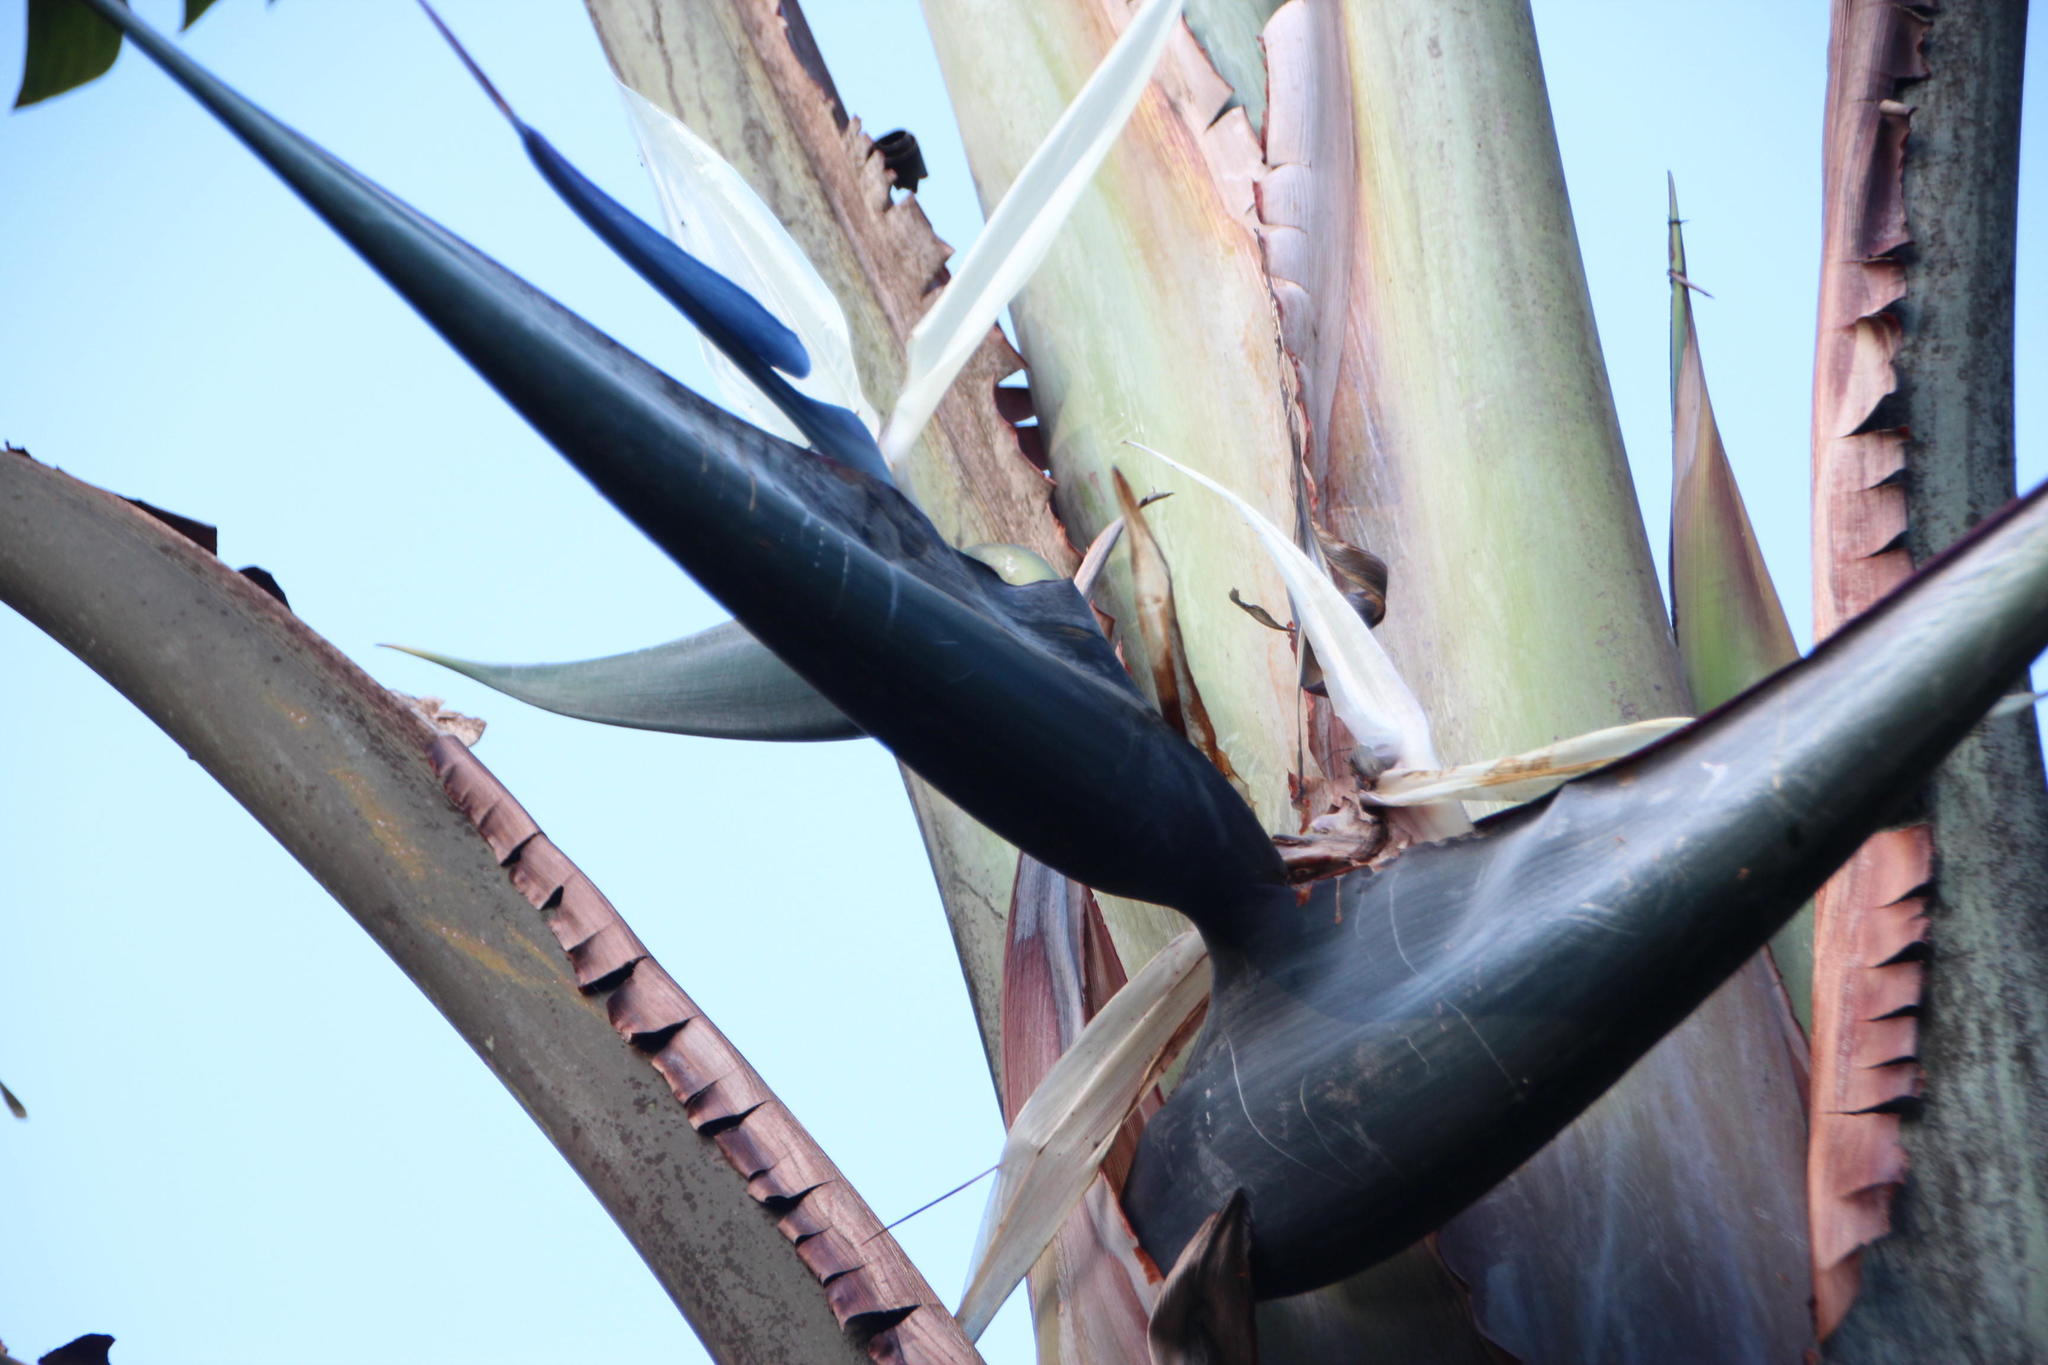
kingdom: Plantae
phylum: Tracheophyta
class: Liliopsida
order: Zingiberales
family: Strelitziaceae
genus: Strelitzia
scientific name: Strelitzia nicolai
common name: Bird-of-paradise tree
